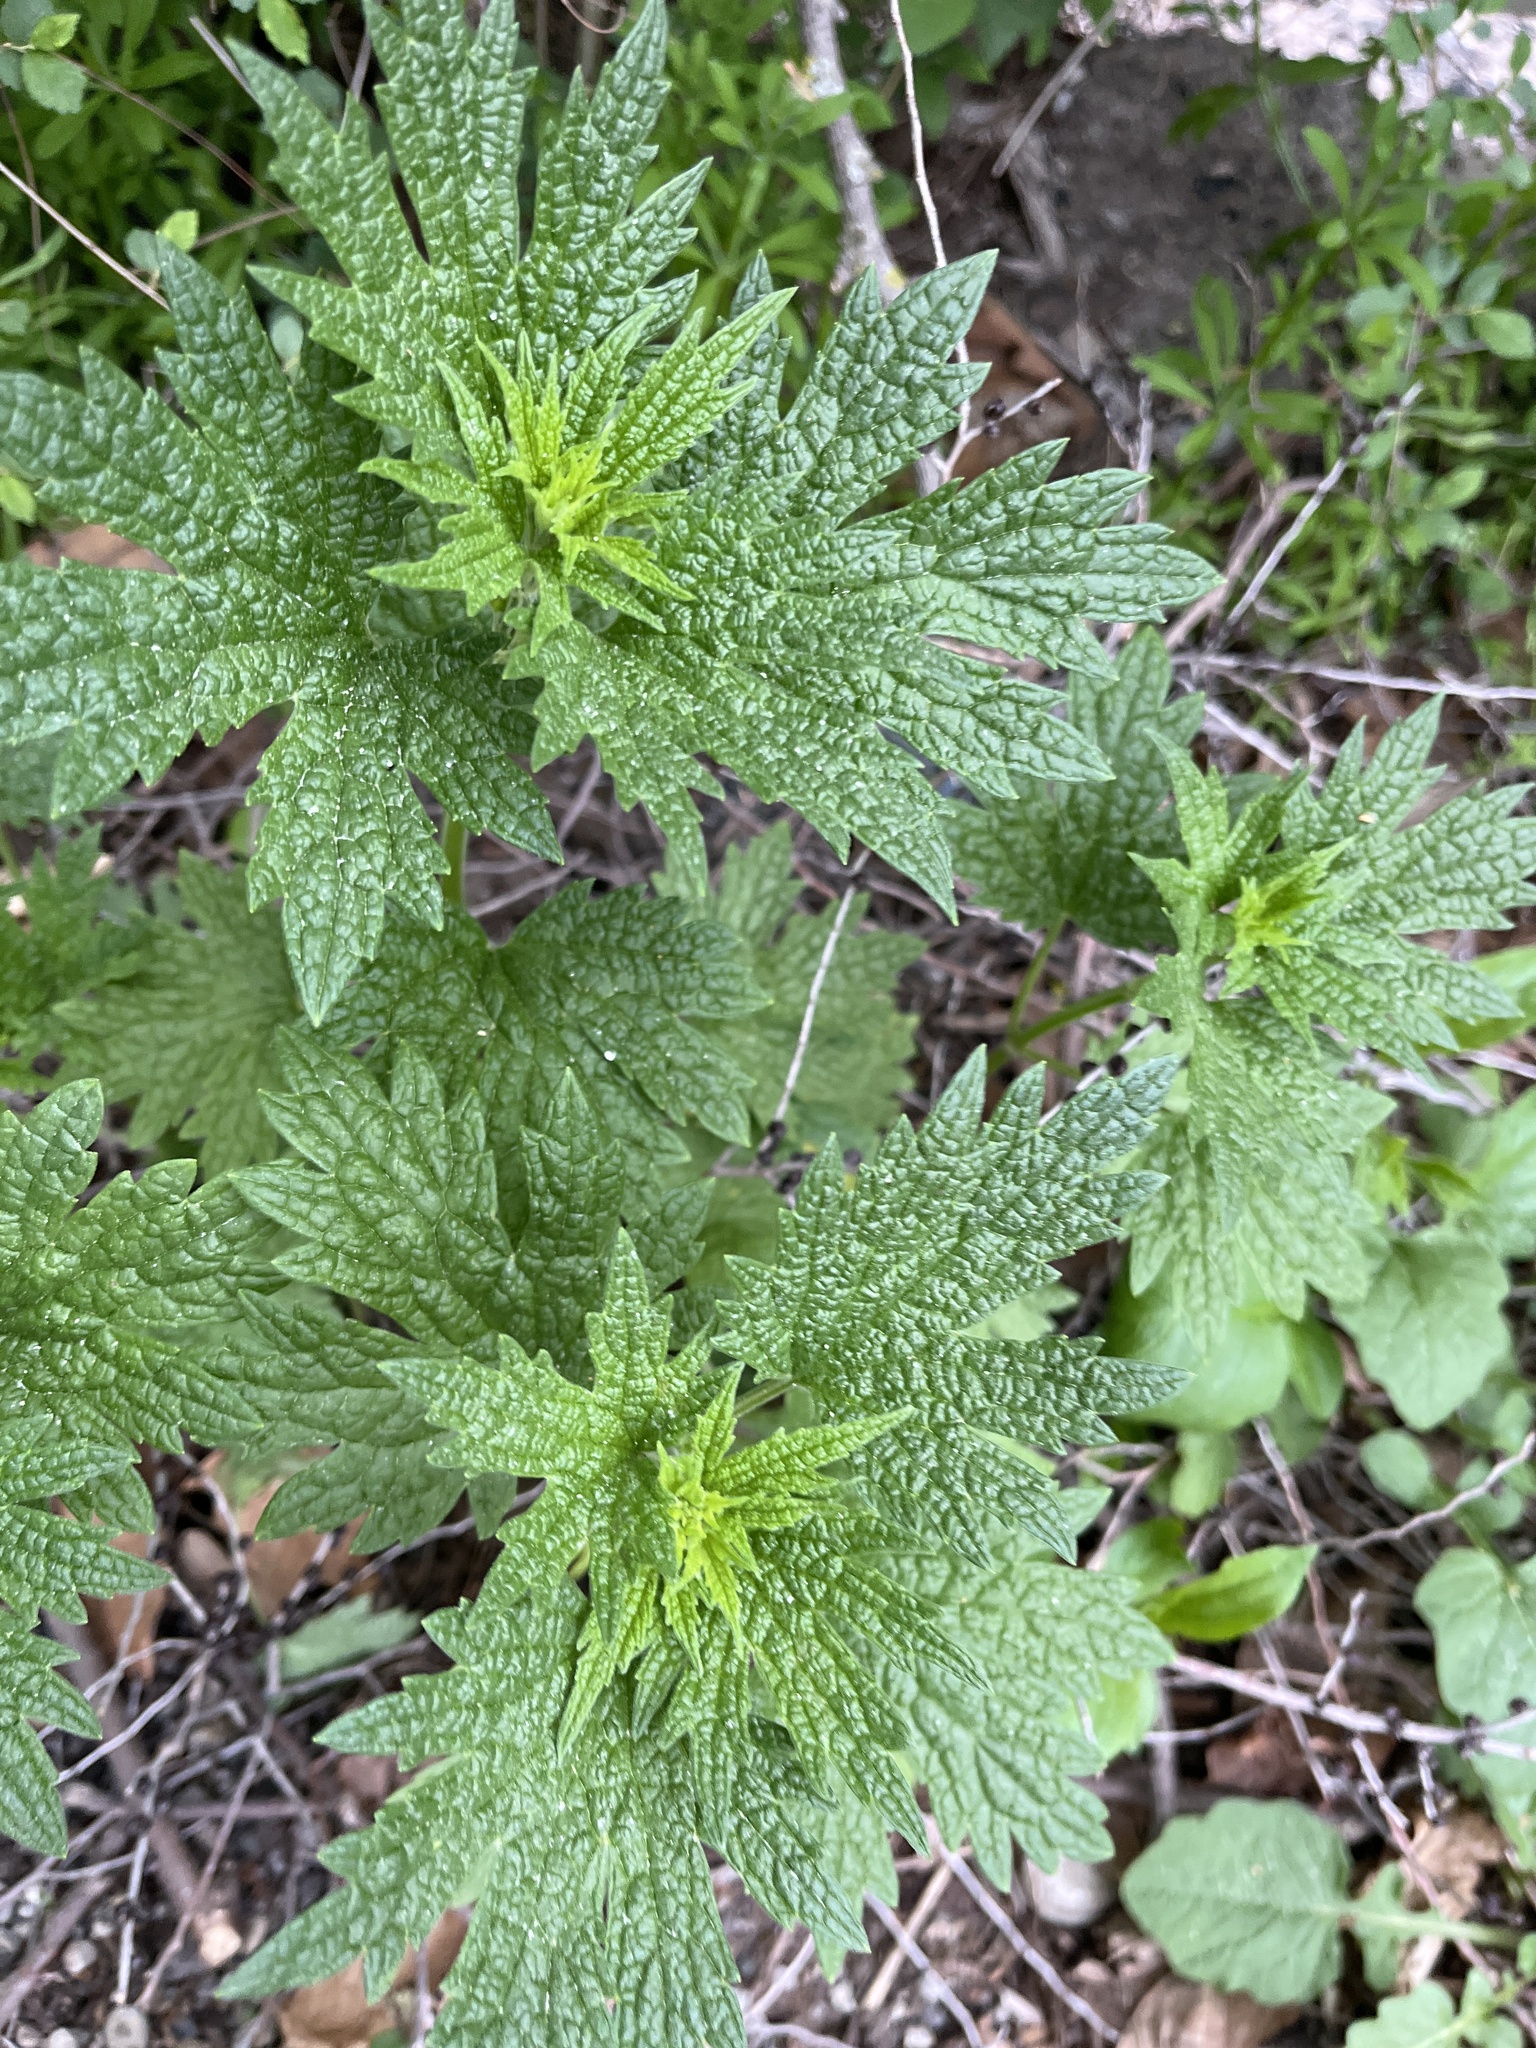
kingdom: Plantae
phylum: Tracheophyta
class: Magnoliopsida
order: Lamiales
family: Lamiaceae
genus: Leonurus
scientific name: Leonurus cardiaca
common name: Motherwort
